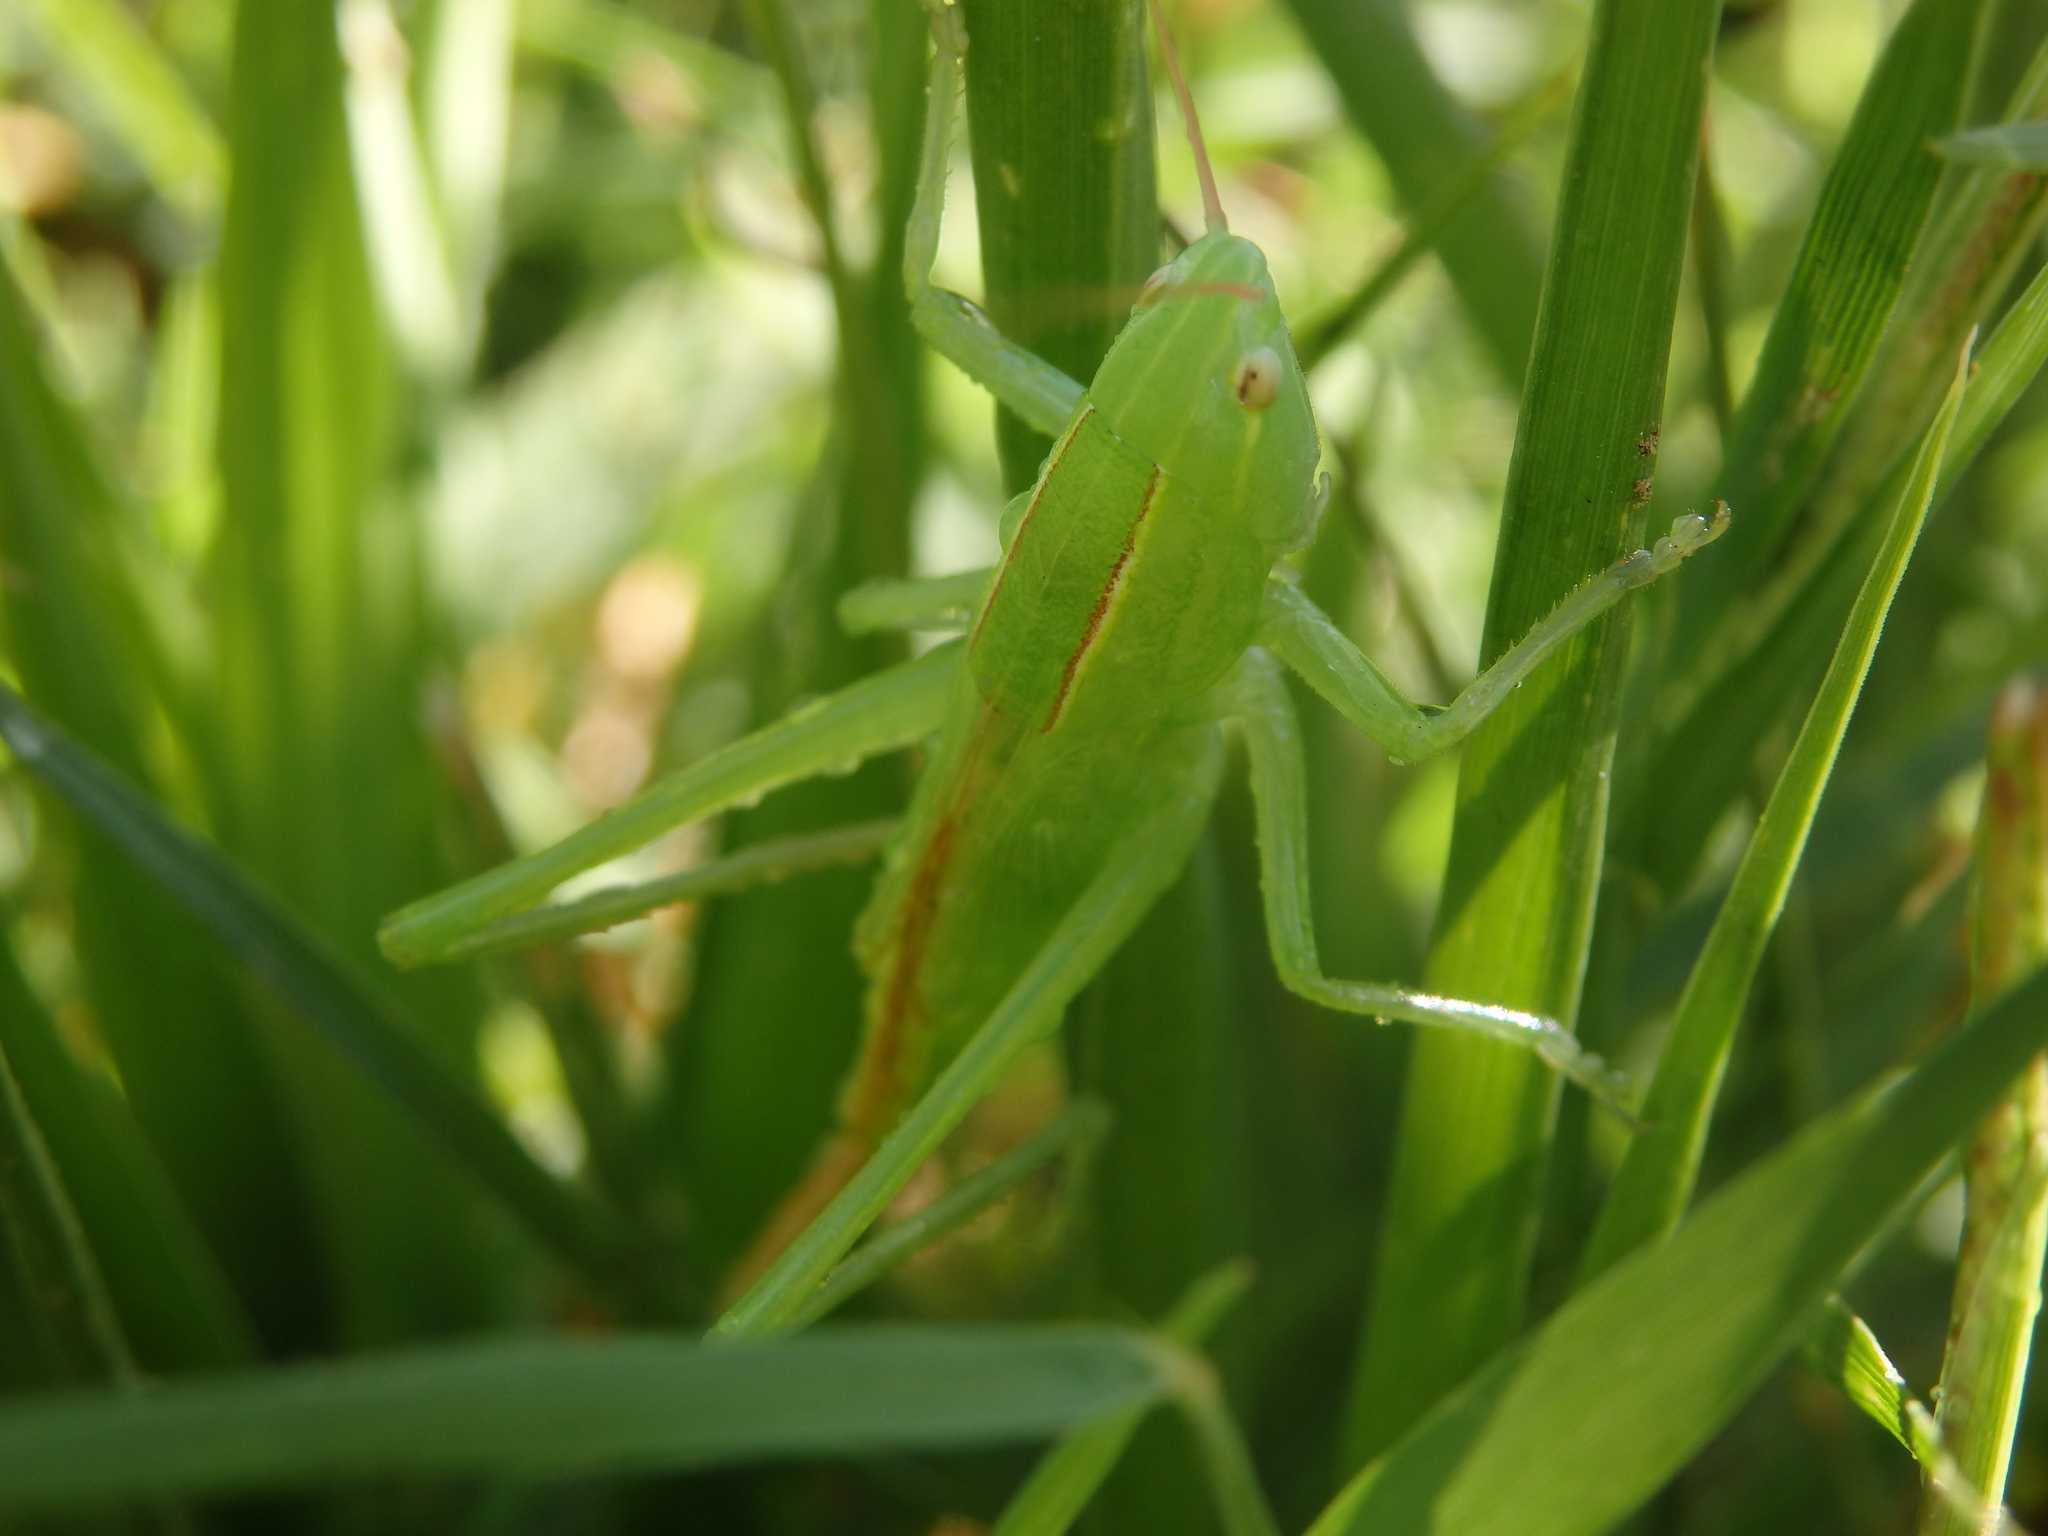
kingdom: Animalia
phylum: Arthropoda
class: Insecta
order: Orthoptera
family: Tettigoniidae
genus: Ruspolia
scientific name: Ruspolia nitidula
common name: Large conehead
